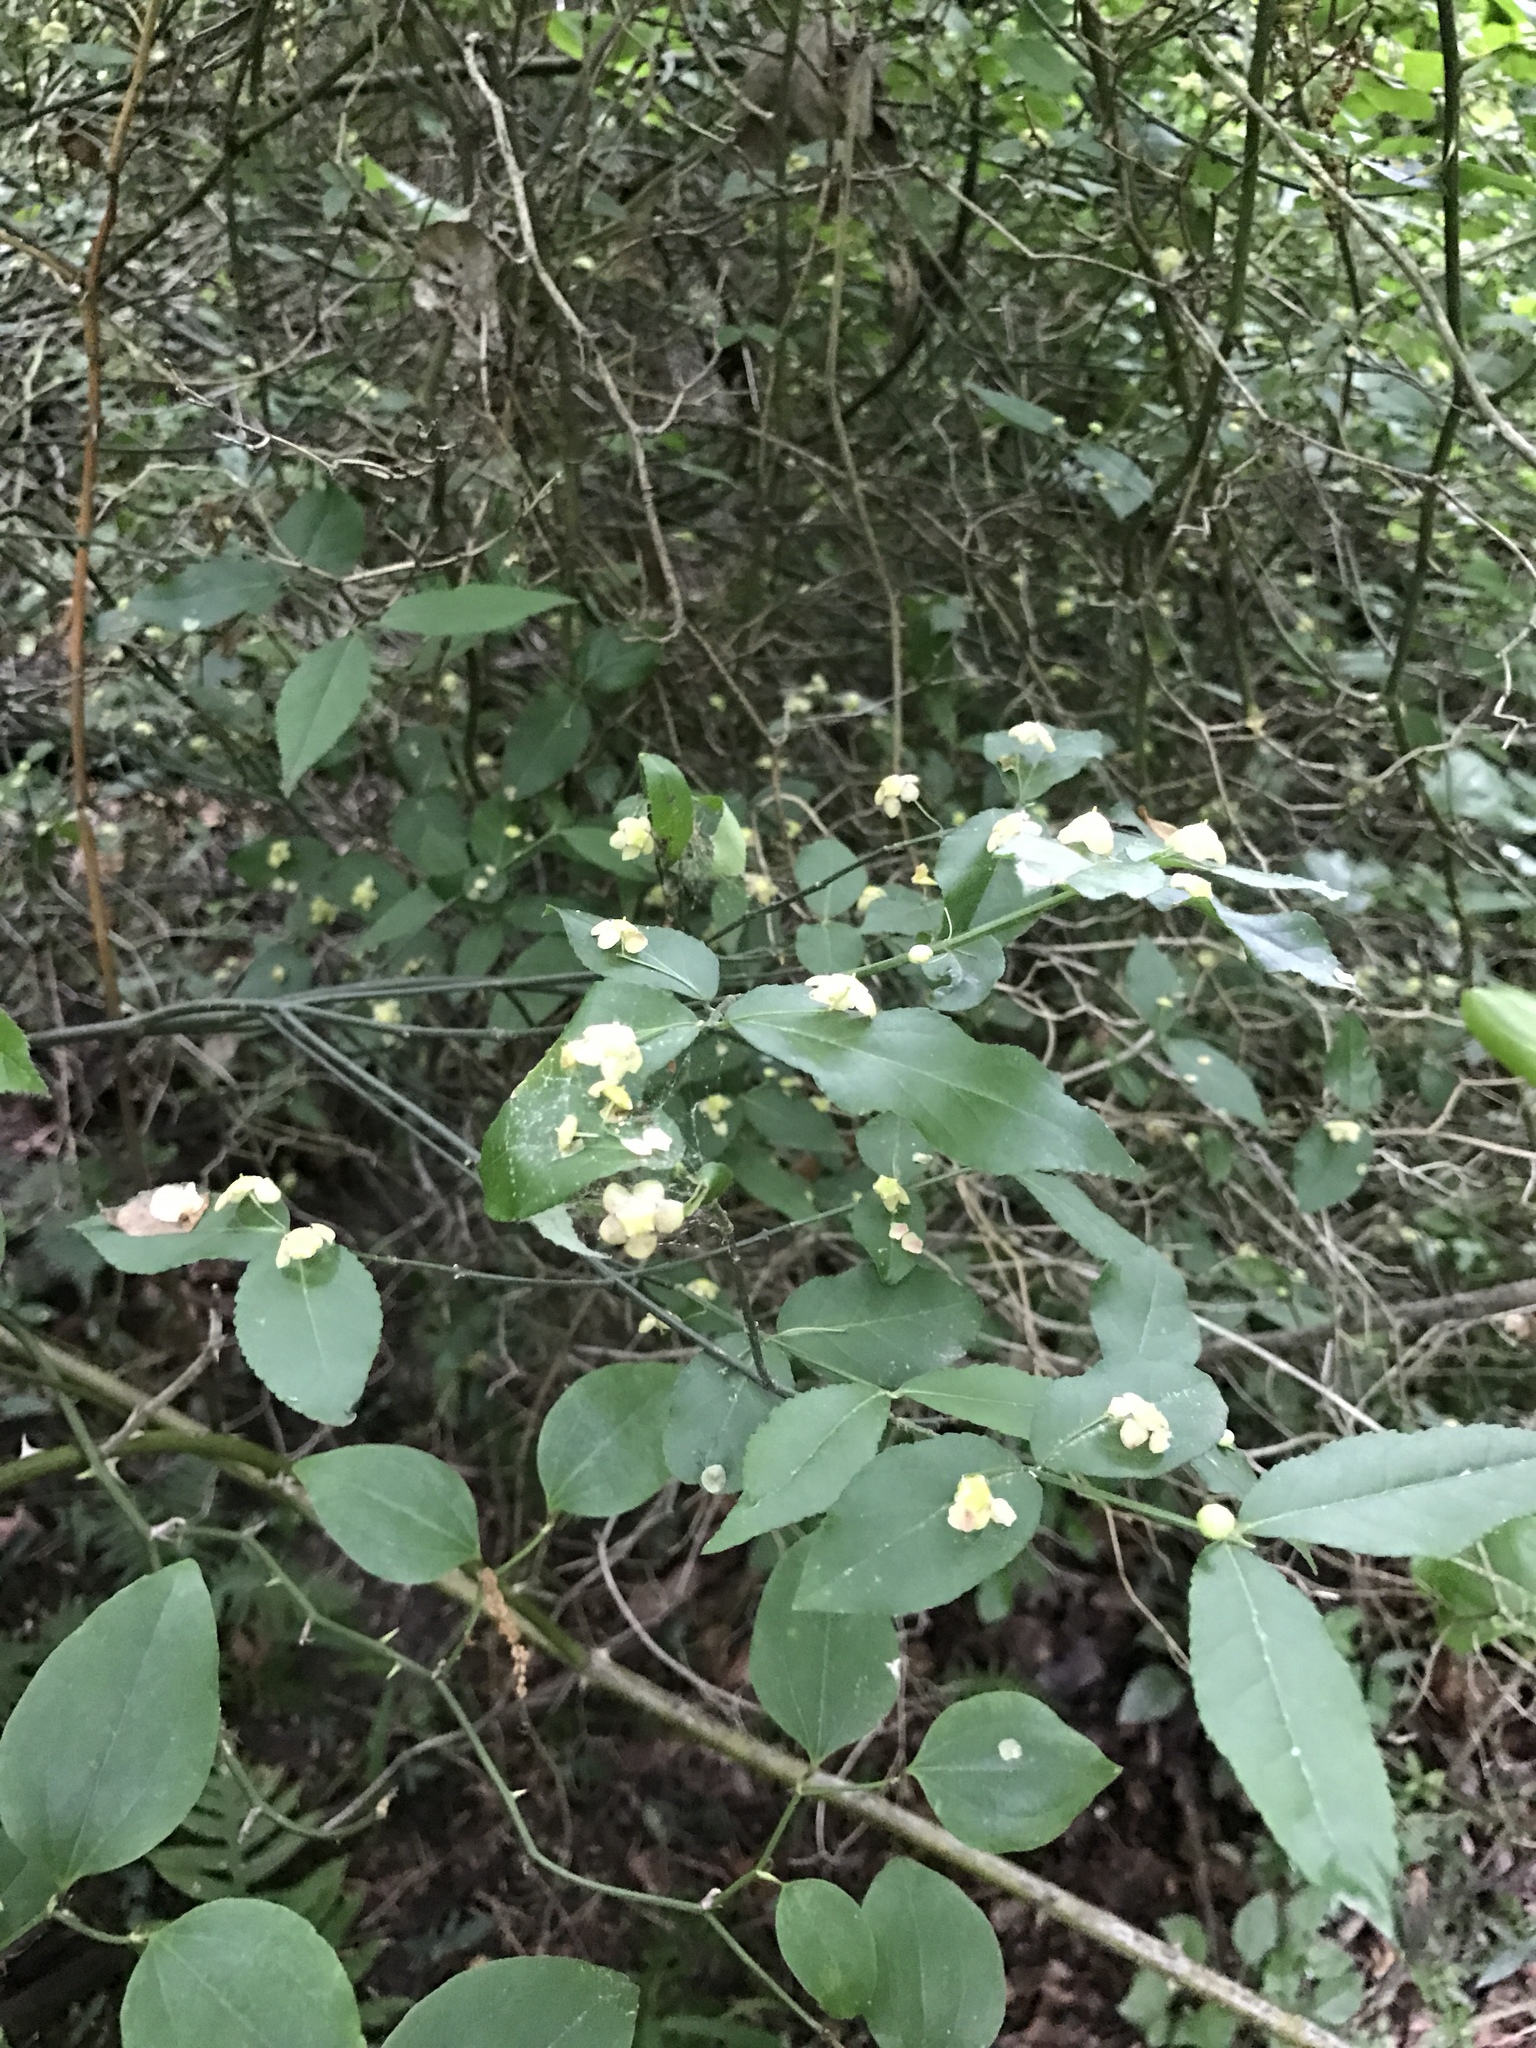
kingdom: Plantae
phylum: Tracheophyta
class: Magnoliopsida
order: Celastrales
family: Celastraceae
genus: Euonymus
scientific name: Euonymus americanus
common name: Bursting-heart
